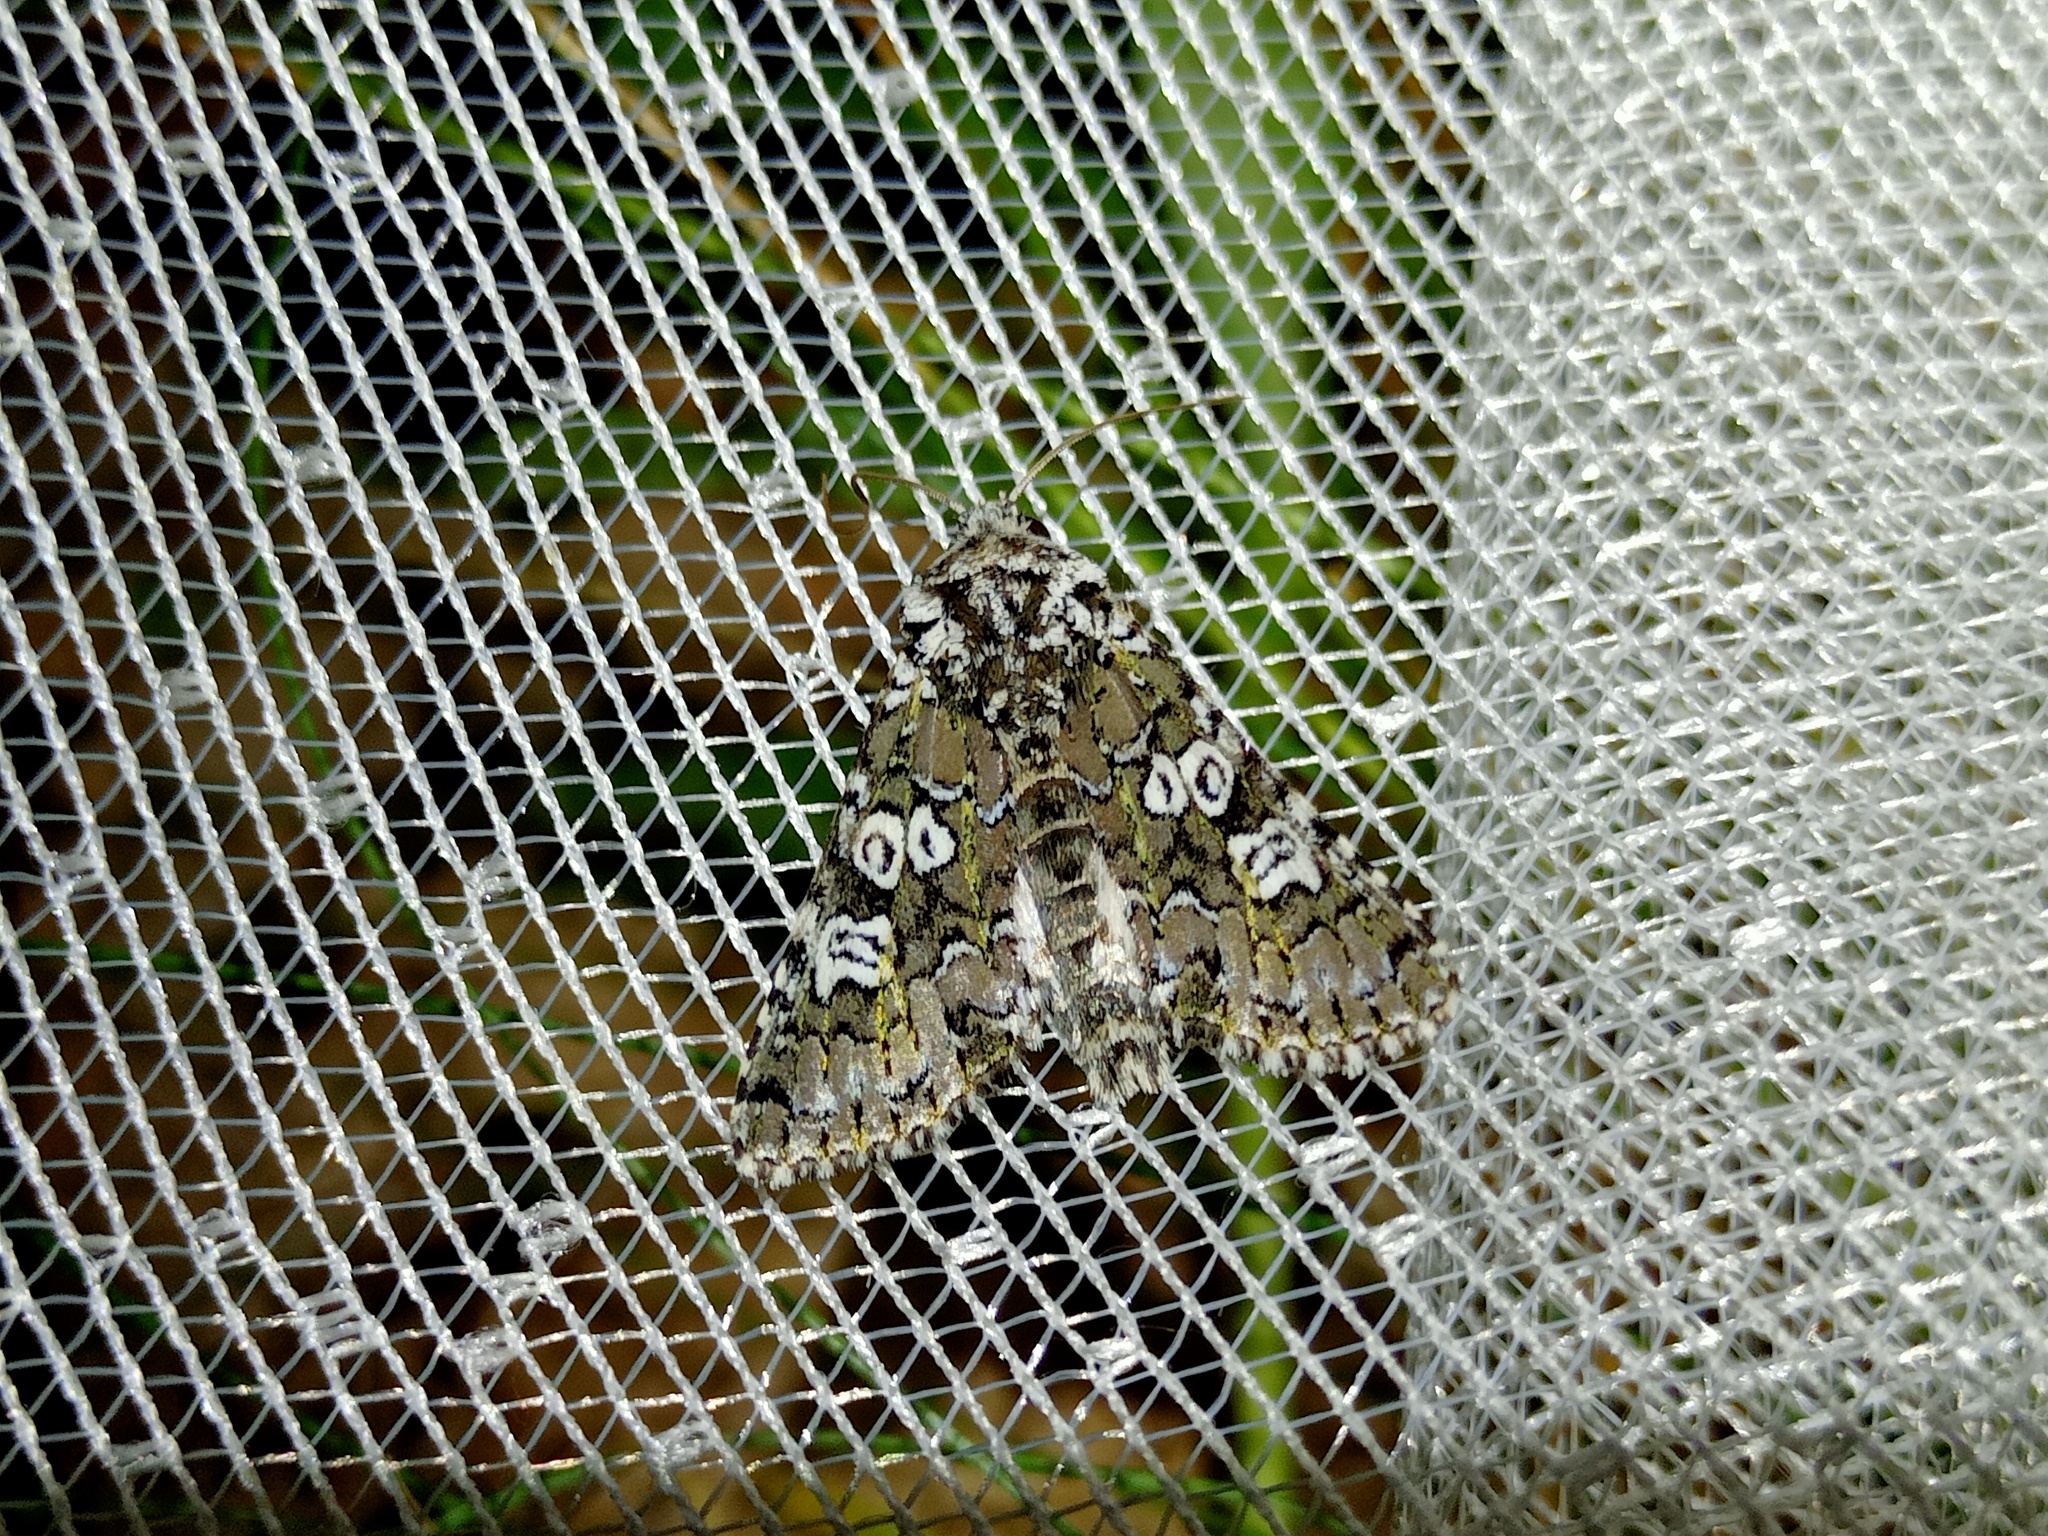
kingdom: Animalia
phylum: Arthropoda
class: Insecta
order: Lepidoptera
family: Noctuidae
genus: Lamprosticta
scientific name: Lamprosticta culta
